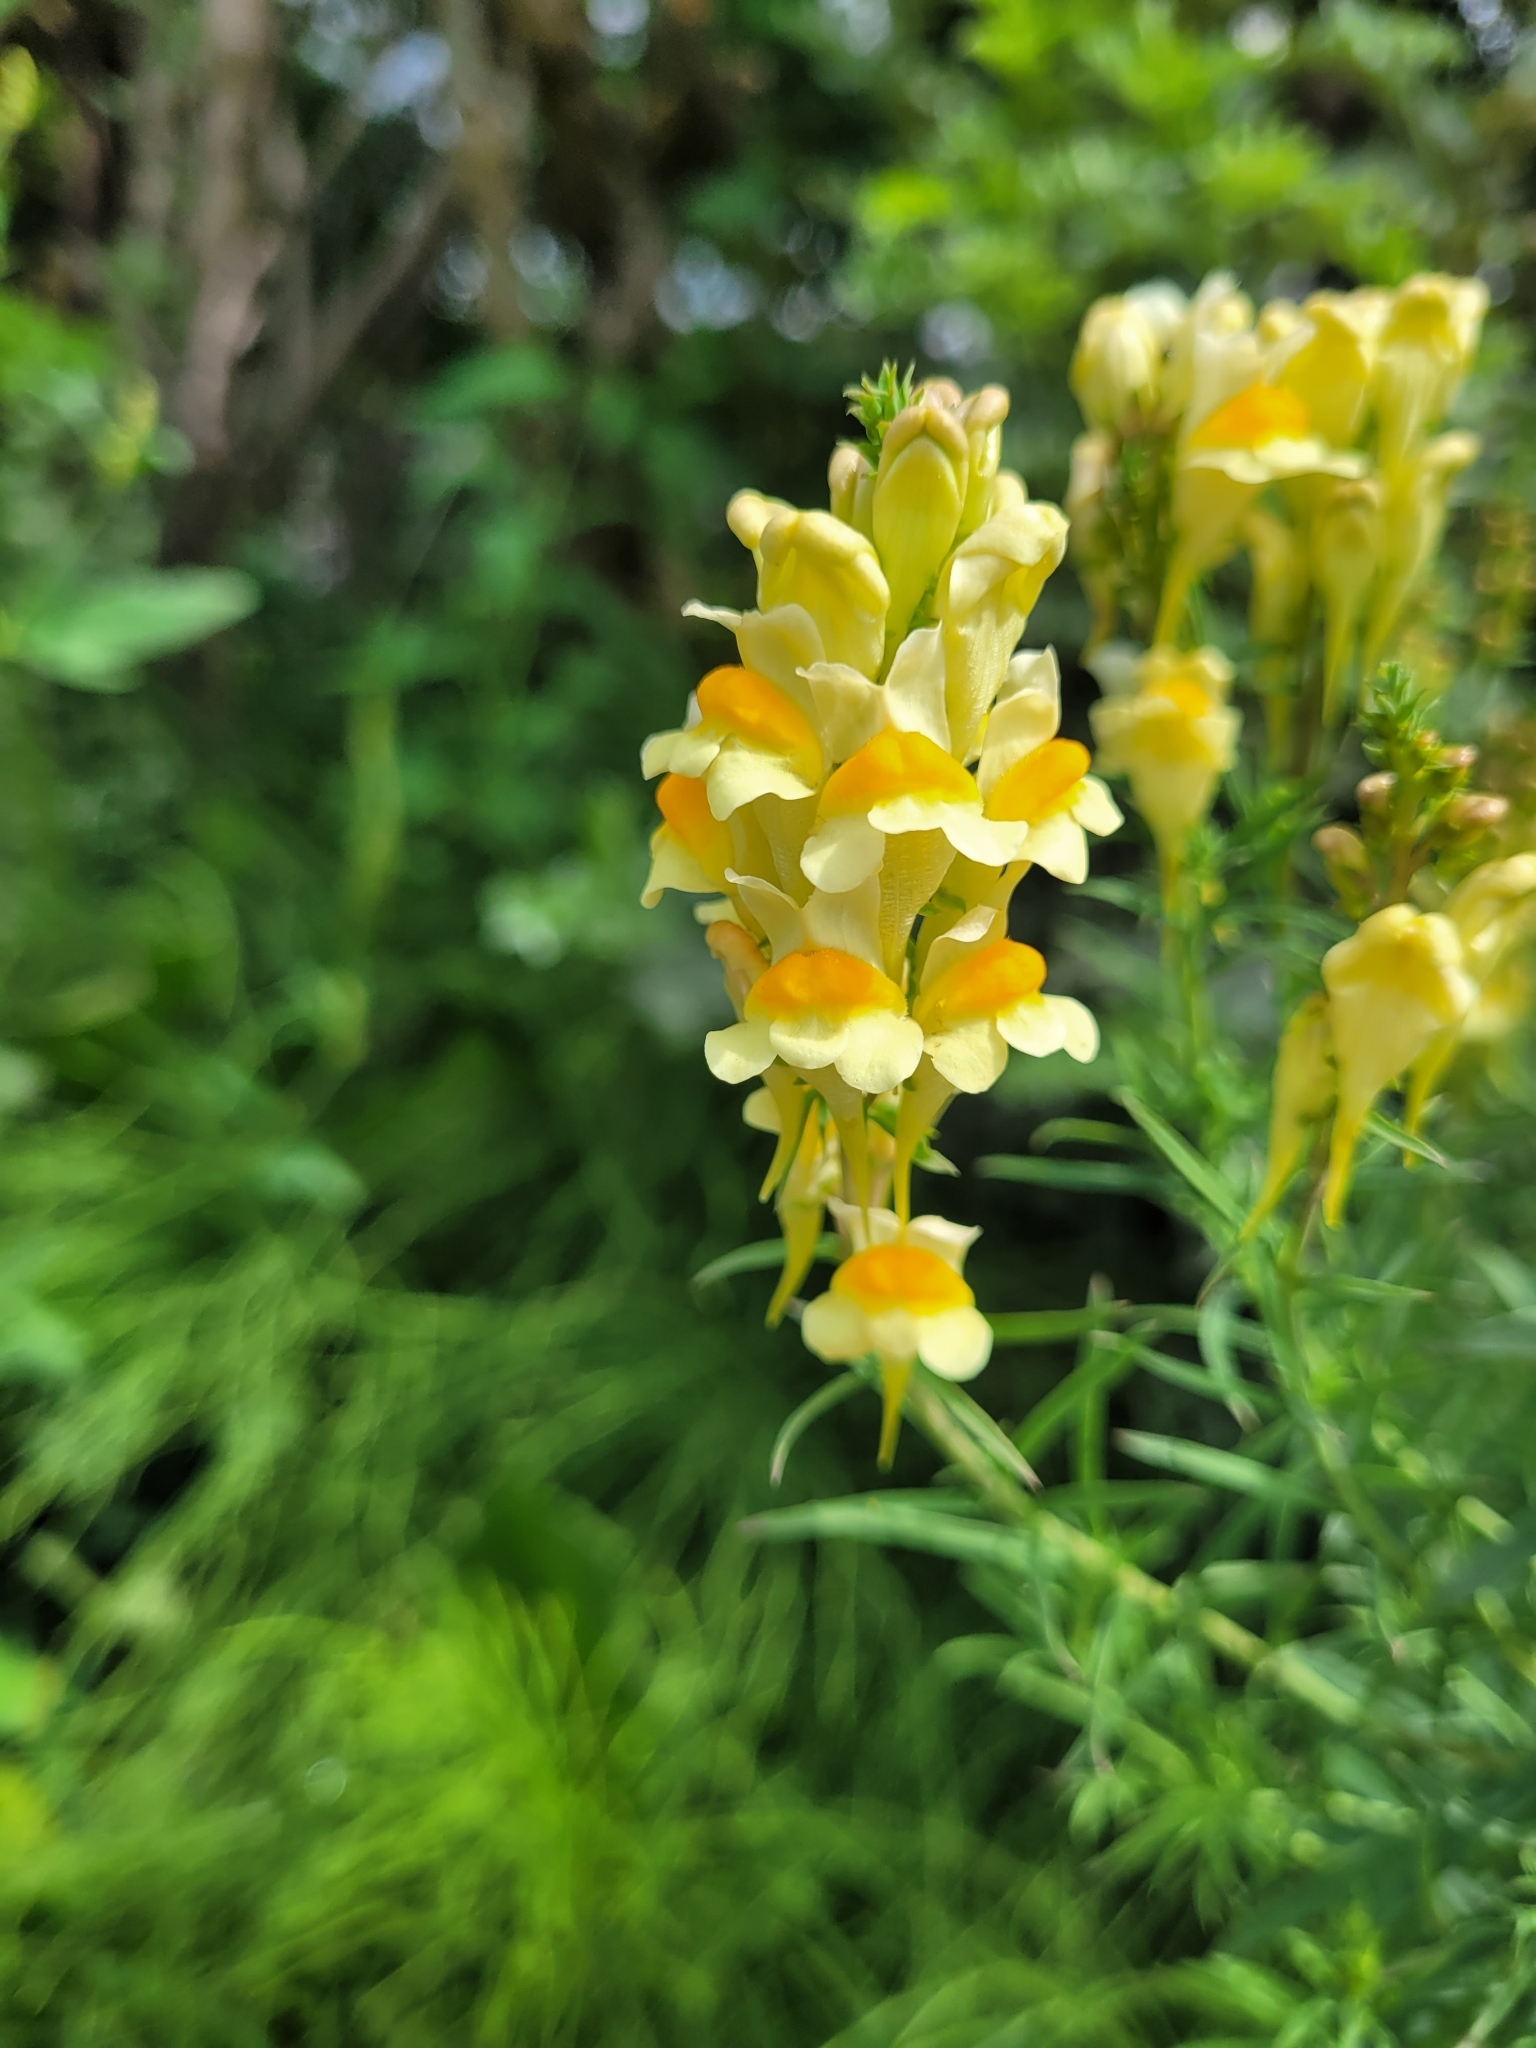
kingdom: Plantae
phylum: Tracheophyta
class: Magnoliopsida
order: Lamiales
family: Plantaginaceae
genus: Linaria
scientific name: Linaria vulgaris
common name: Butter and eggs
